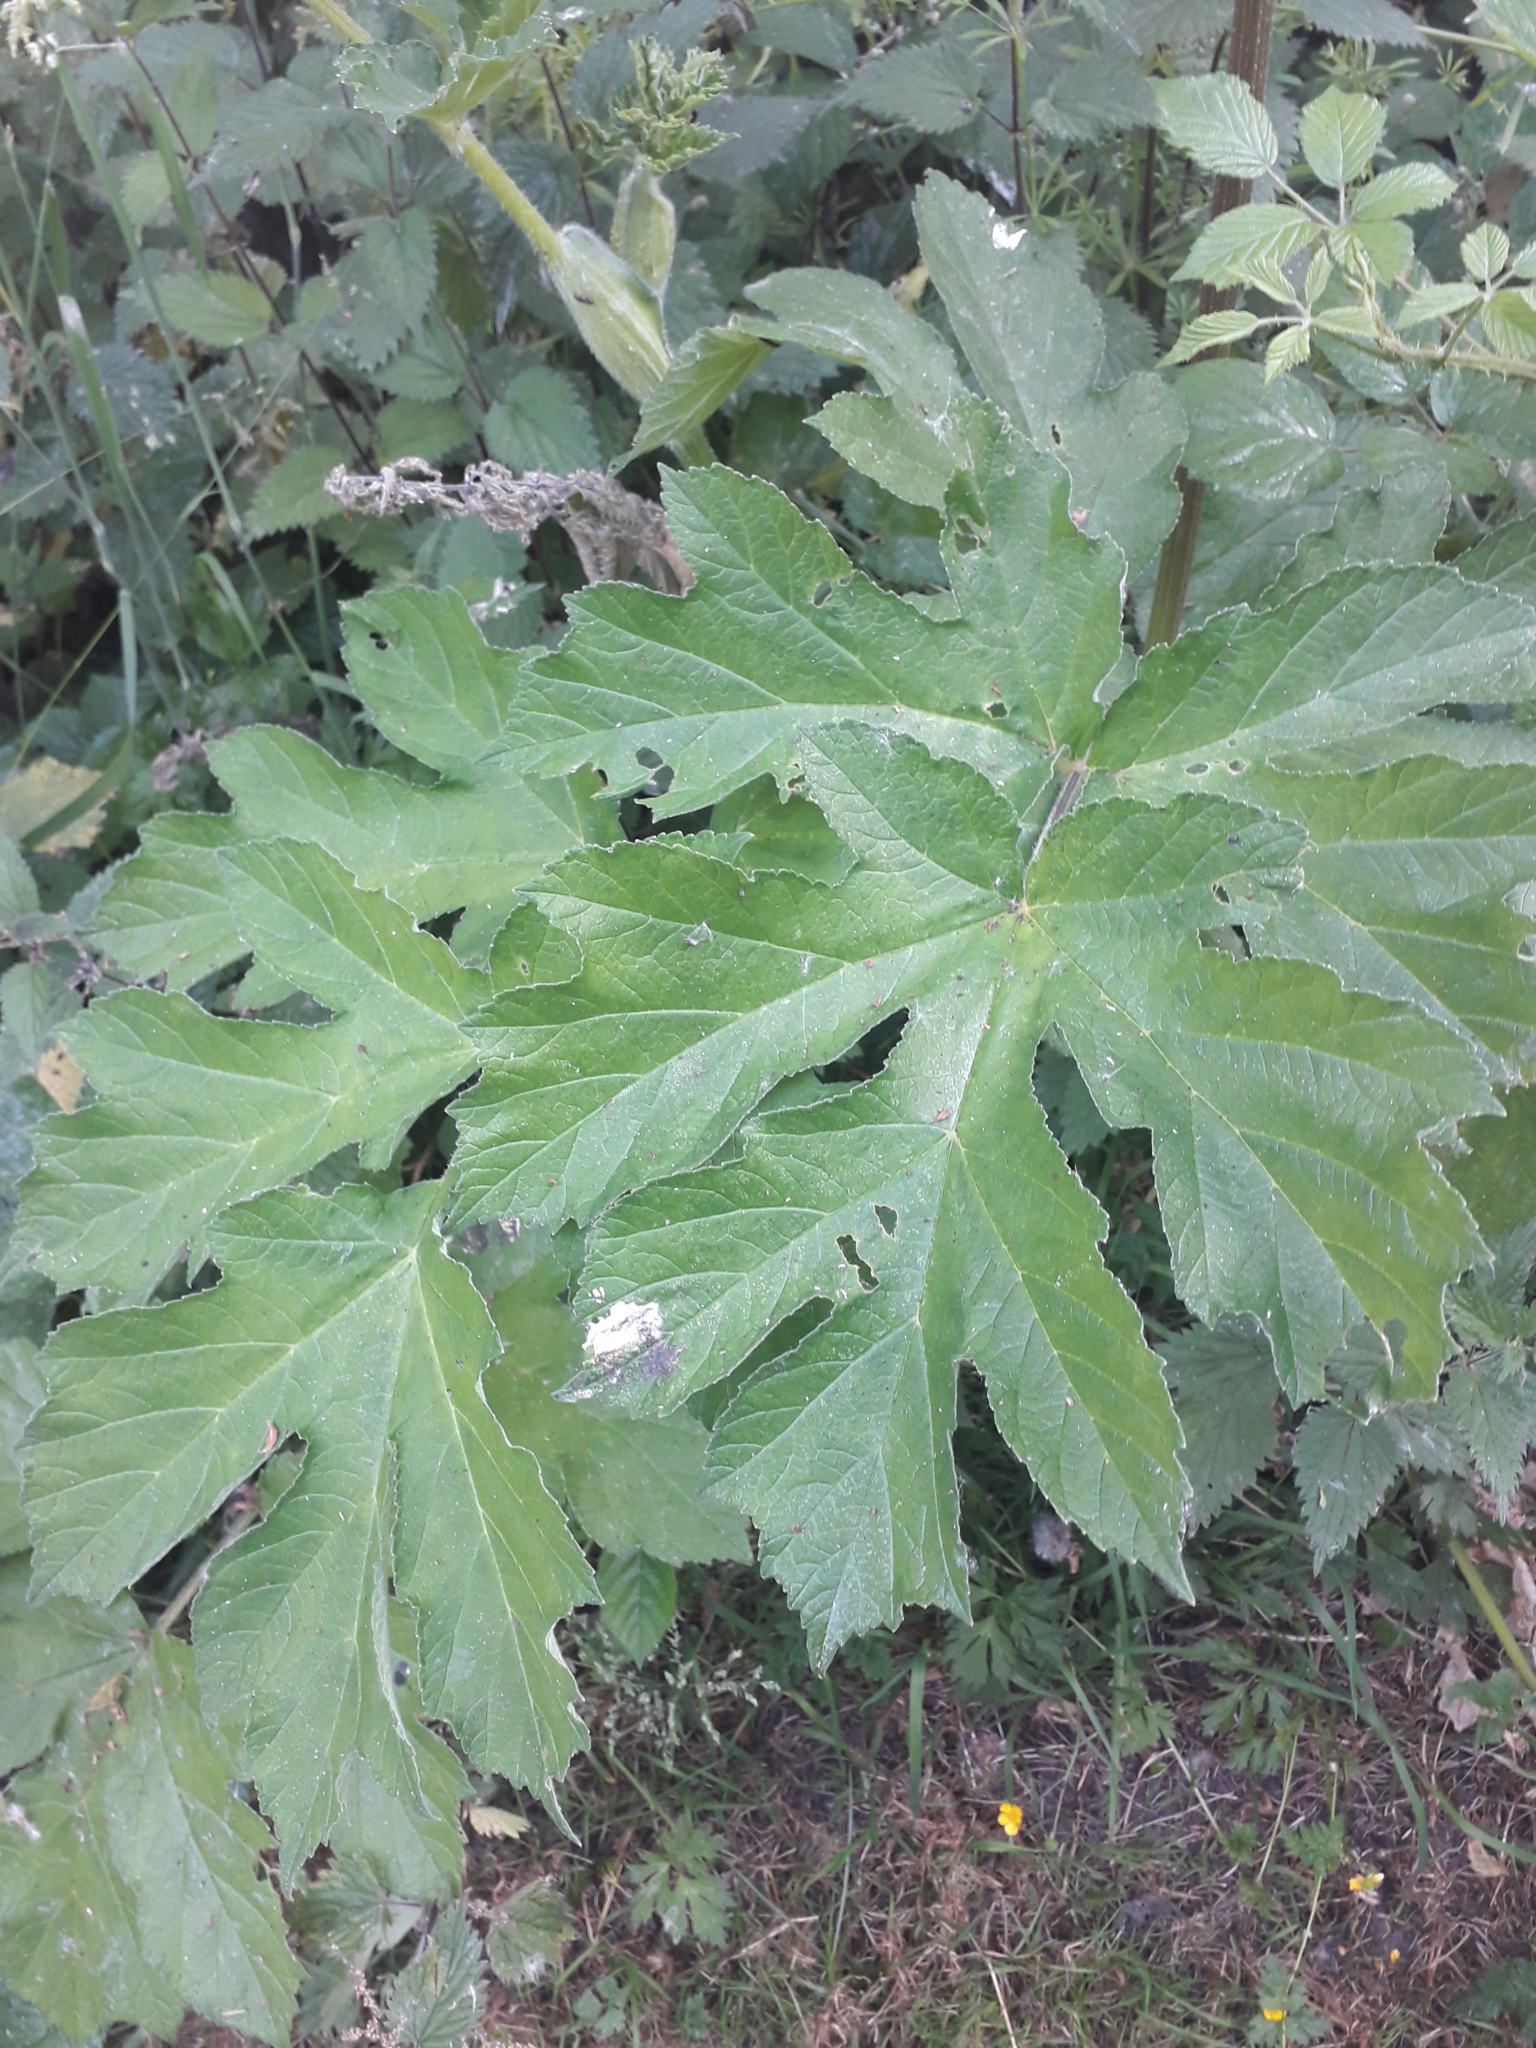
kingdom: Plantae
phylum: Tracheophyta
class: Magnoliopsida
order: Apiales
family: Apiaceae
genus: Heracleum
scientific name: Heracleum sphondylium
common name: Hogweed
